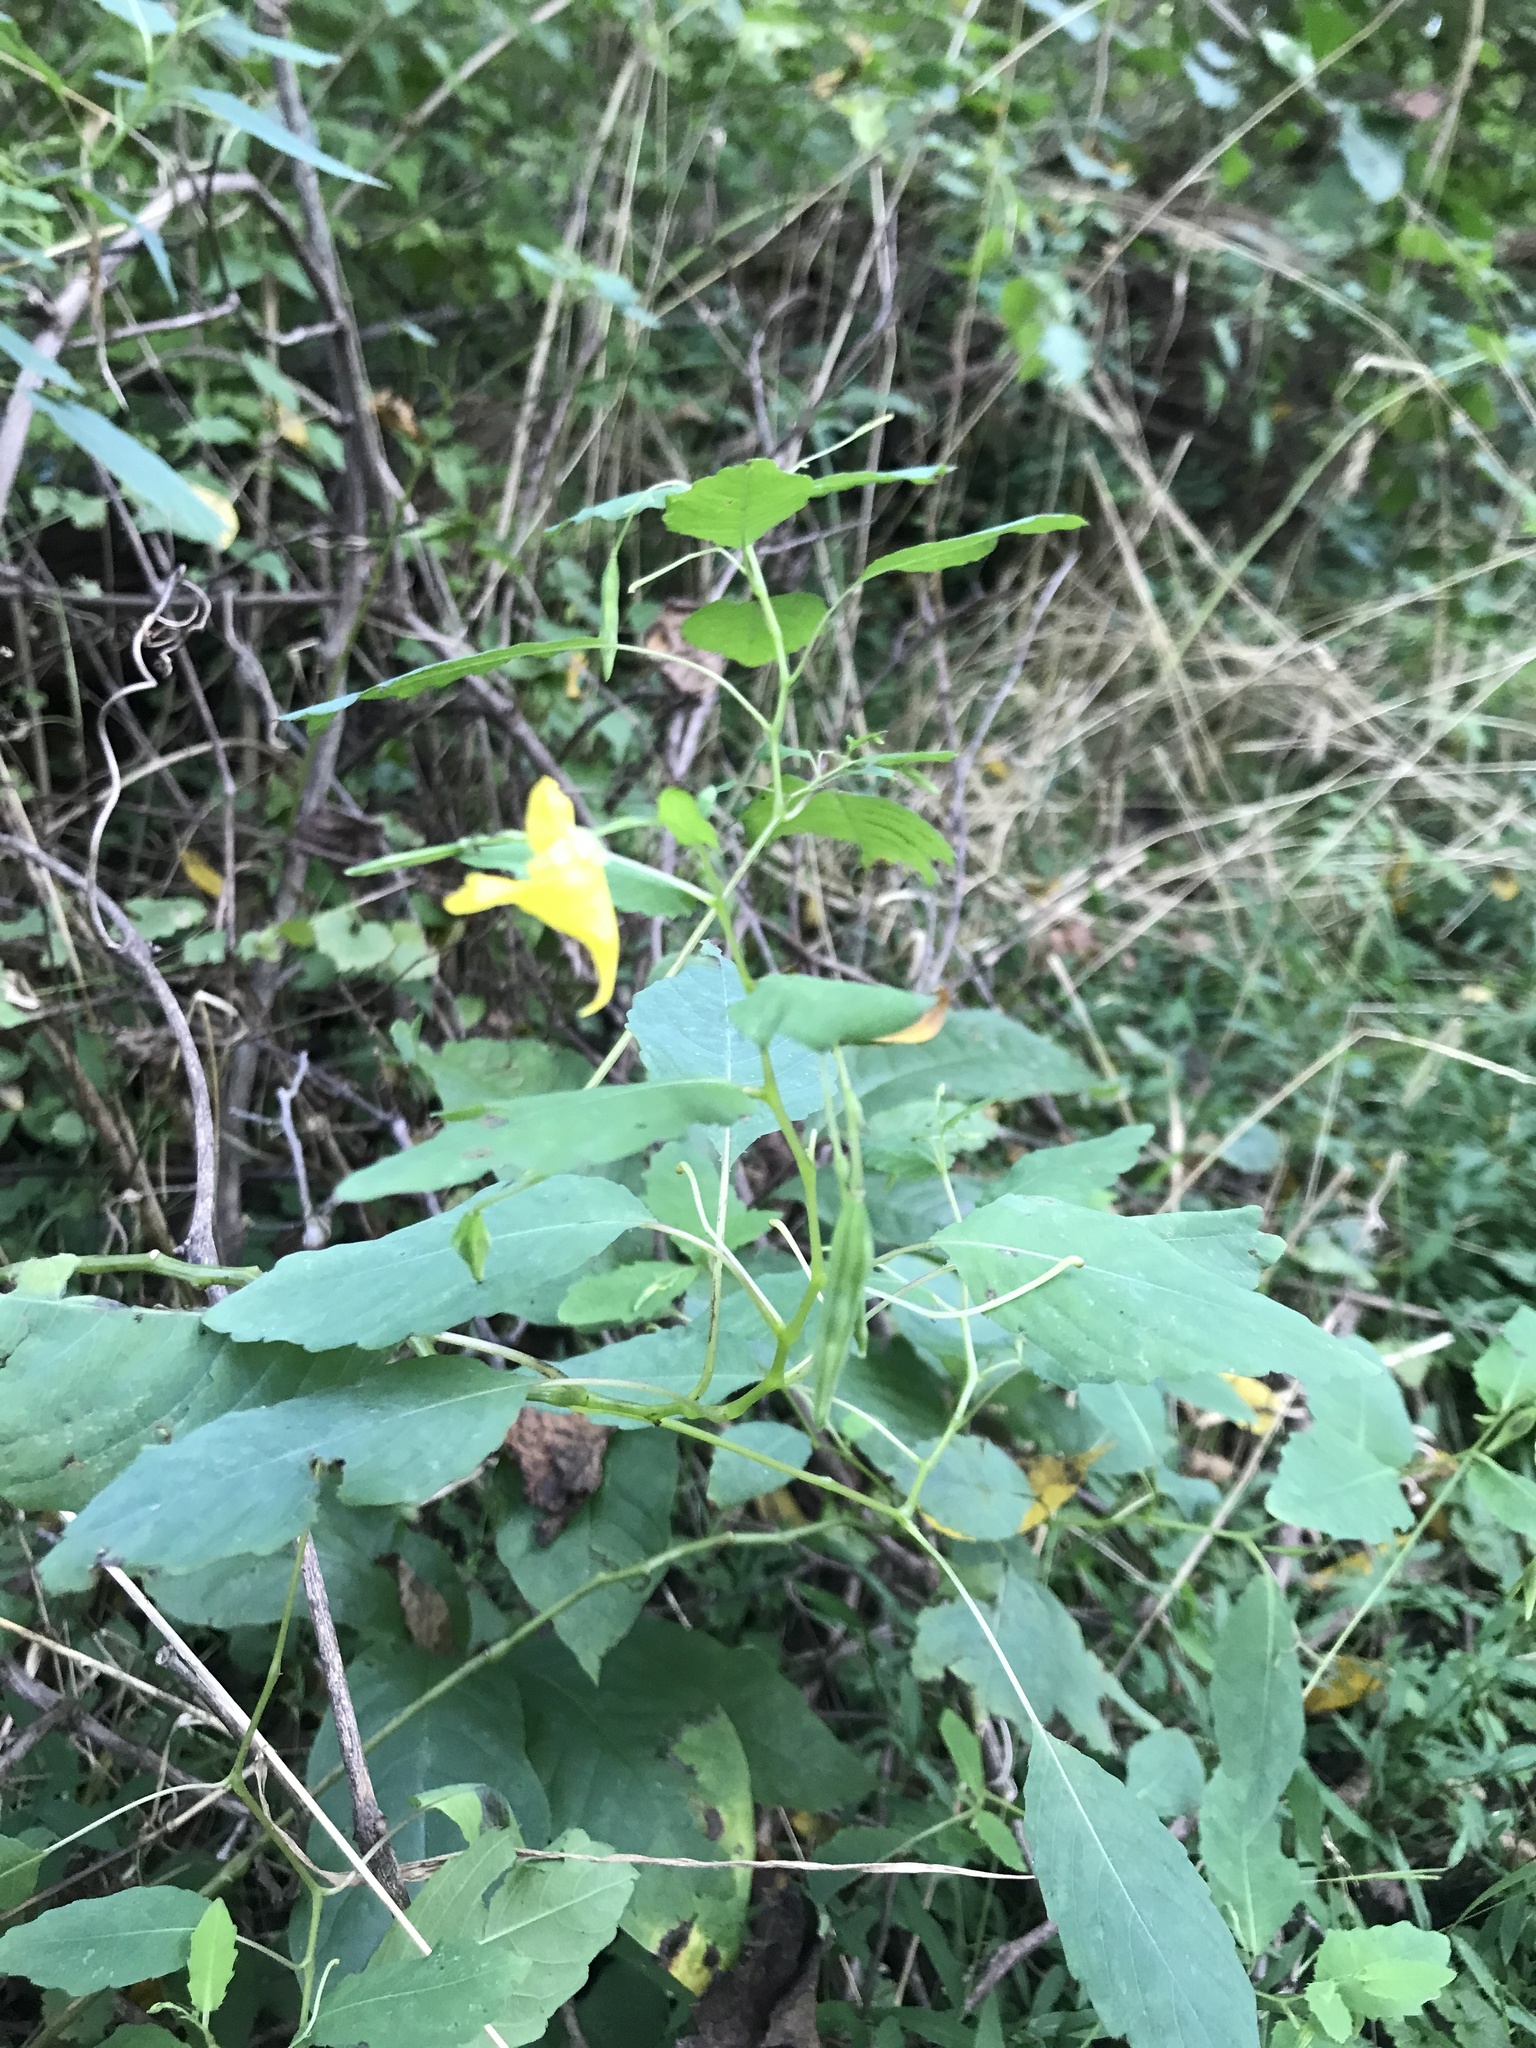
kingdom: Plantae
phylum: Tracheophyta
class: Magnoliopsida
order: Ericales
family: Balsaminaceae
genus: Impatiens
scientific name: Impatiens pallida
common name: Pale snapweed
